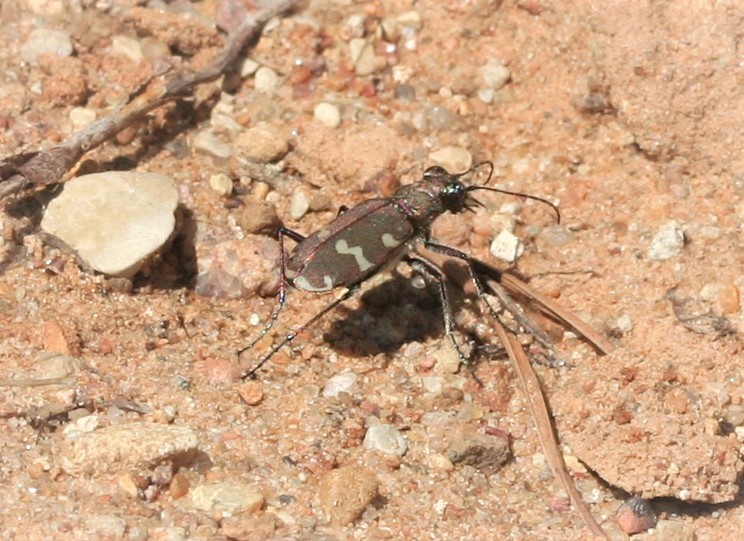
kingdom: Animalia
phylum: Arthropoda
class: Insecta
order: Coleoptera
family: Carabidae
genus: Cicindela
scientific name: Cicindela hybrida
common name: Northern dune tiger beetle
